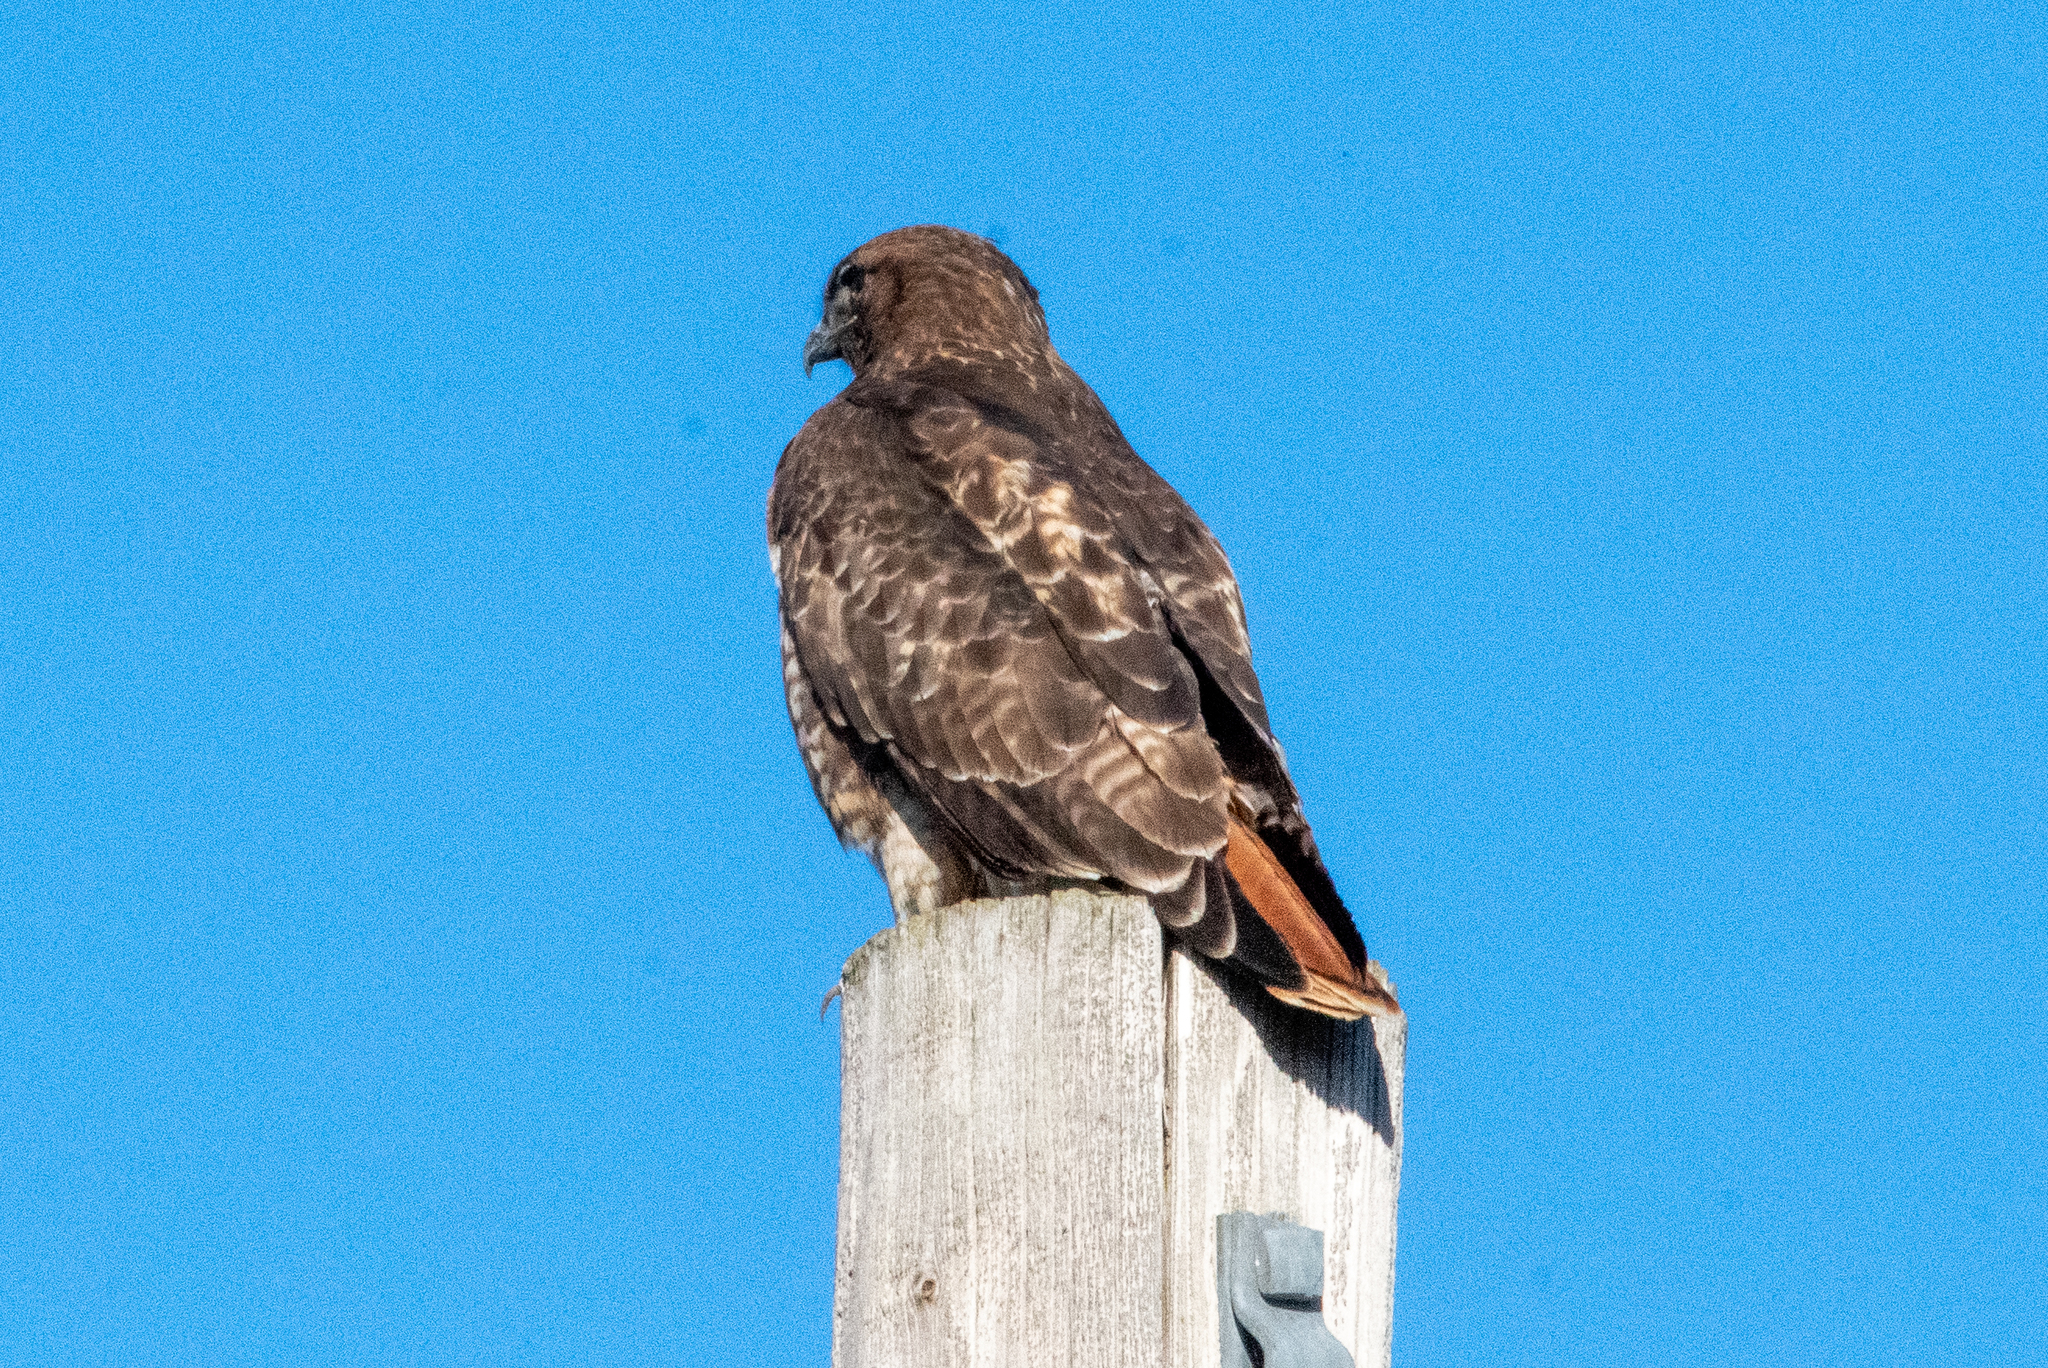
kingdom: Animalia
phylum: Chordata
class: Aves
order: Accipitriformes
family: Accipitridae
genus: Buteo
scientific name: Buteo jamaicensis
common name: Red-tailed hawk
